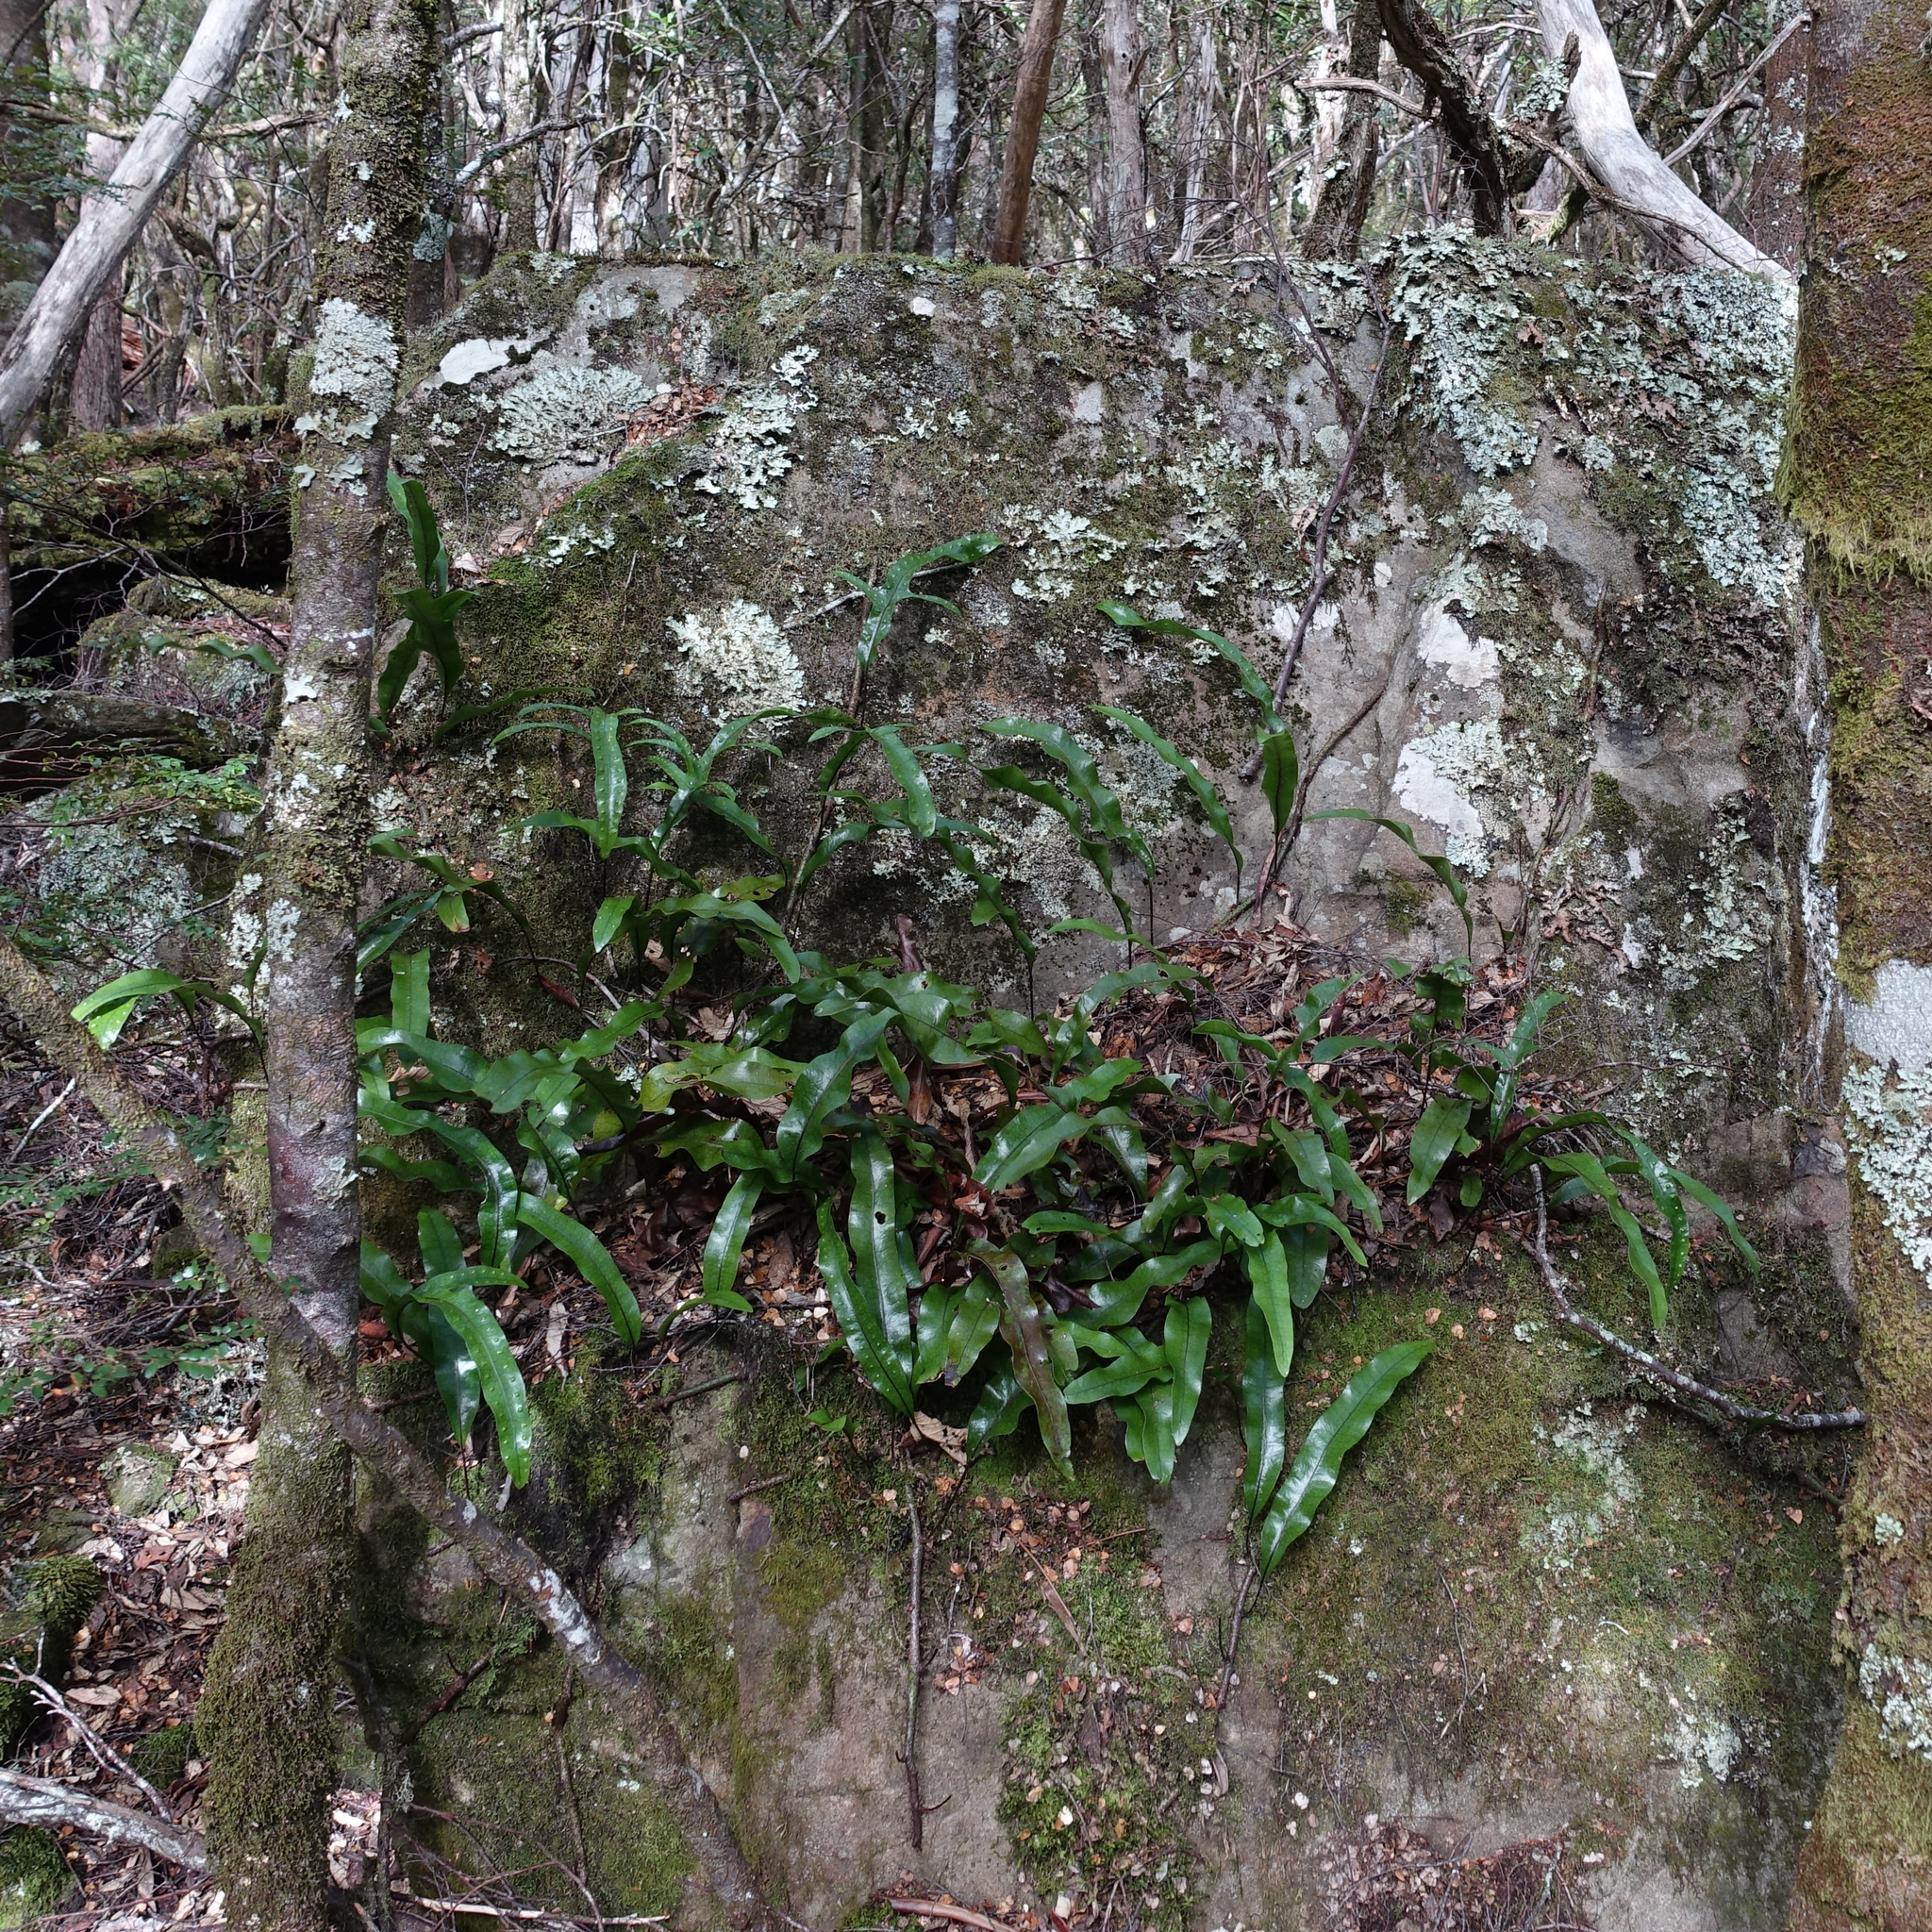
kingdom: Plantae
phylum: Tracheophyta
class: Polypodiopsida
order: Polypodiales
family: Polypodiaceae
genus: Lecanopteris
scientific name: Lecanopteris pustulata
